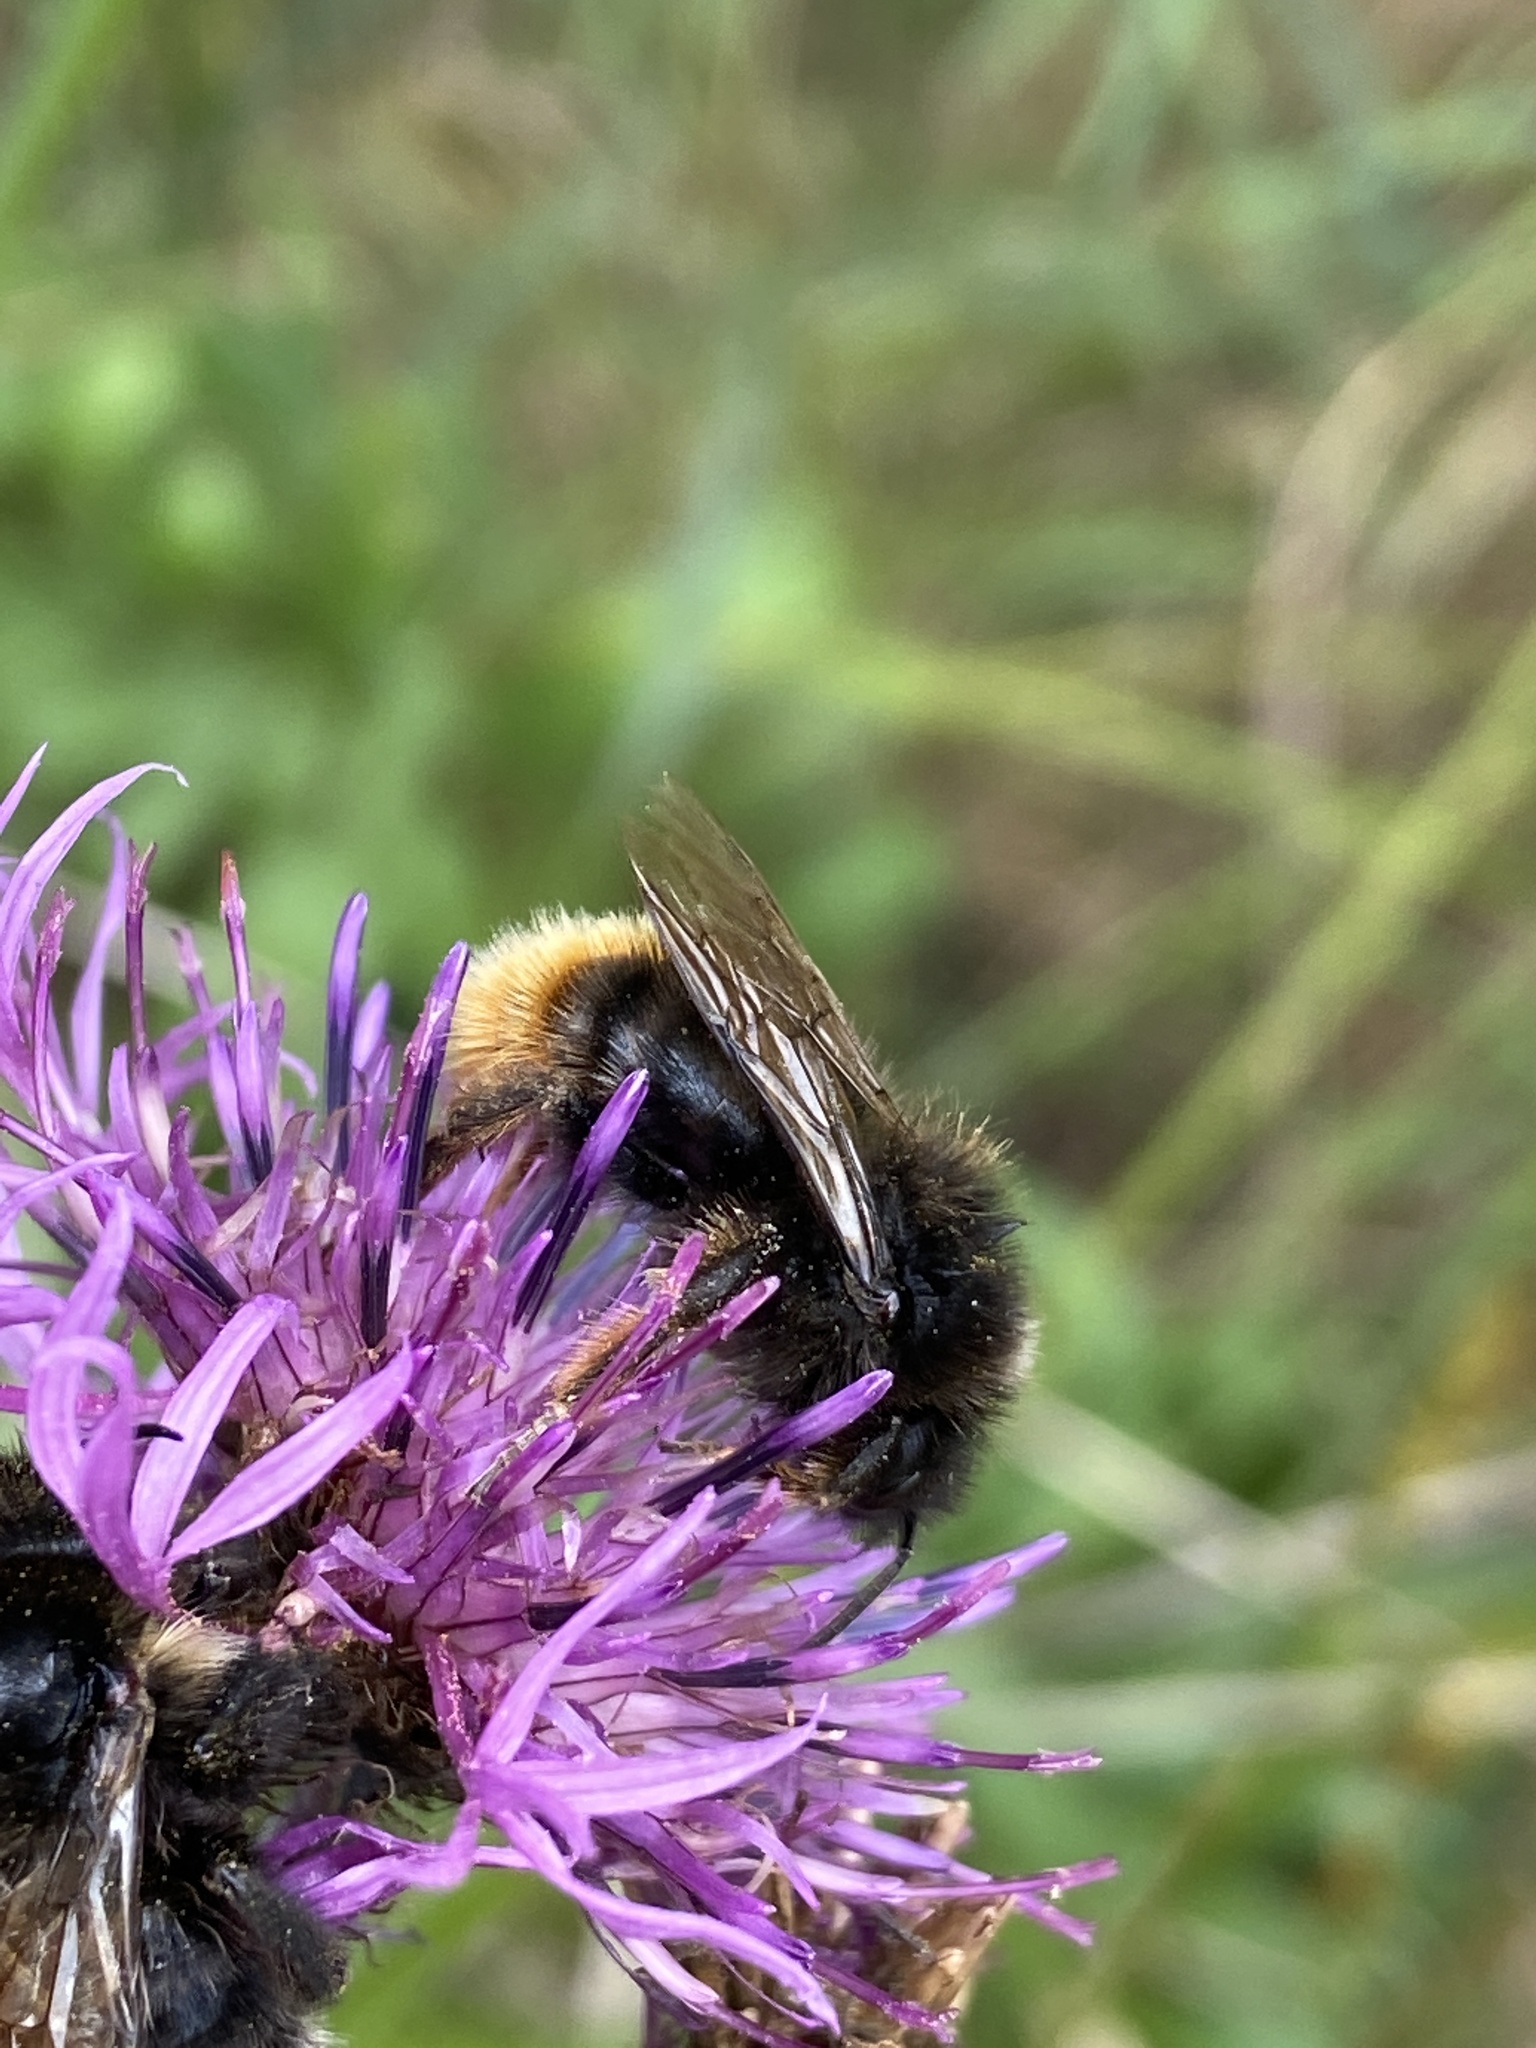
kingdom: Animalia
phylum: Arthropoda
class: Insecta
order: Hymenoptera
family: Apidae
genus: Bombus
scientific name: Bombus rupestris
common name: Hill cuckoo-bee
